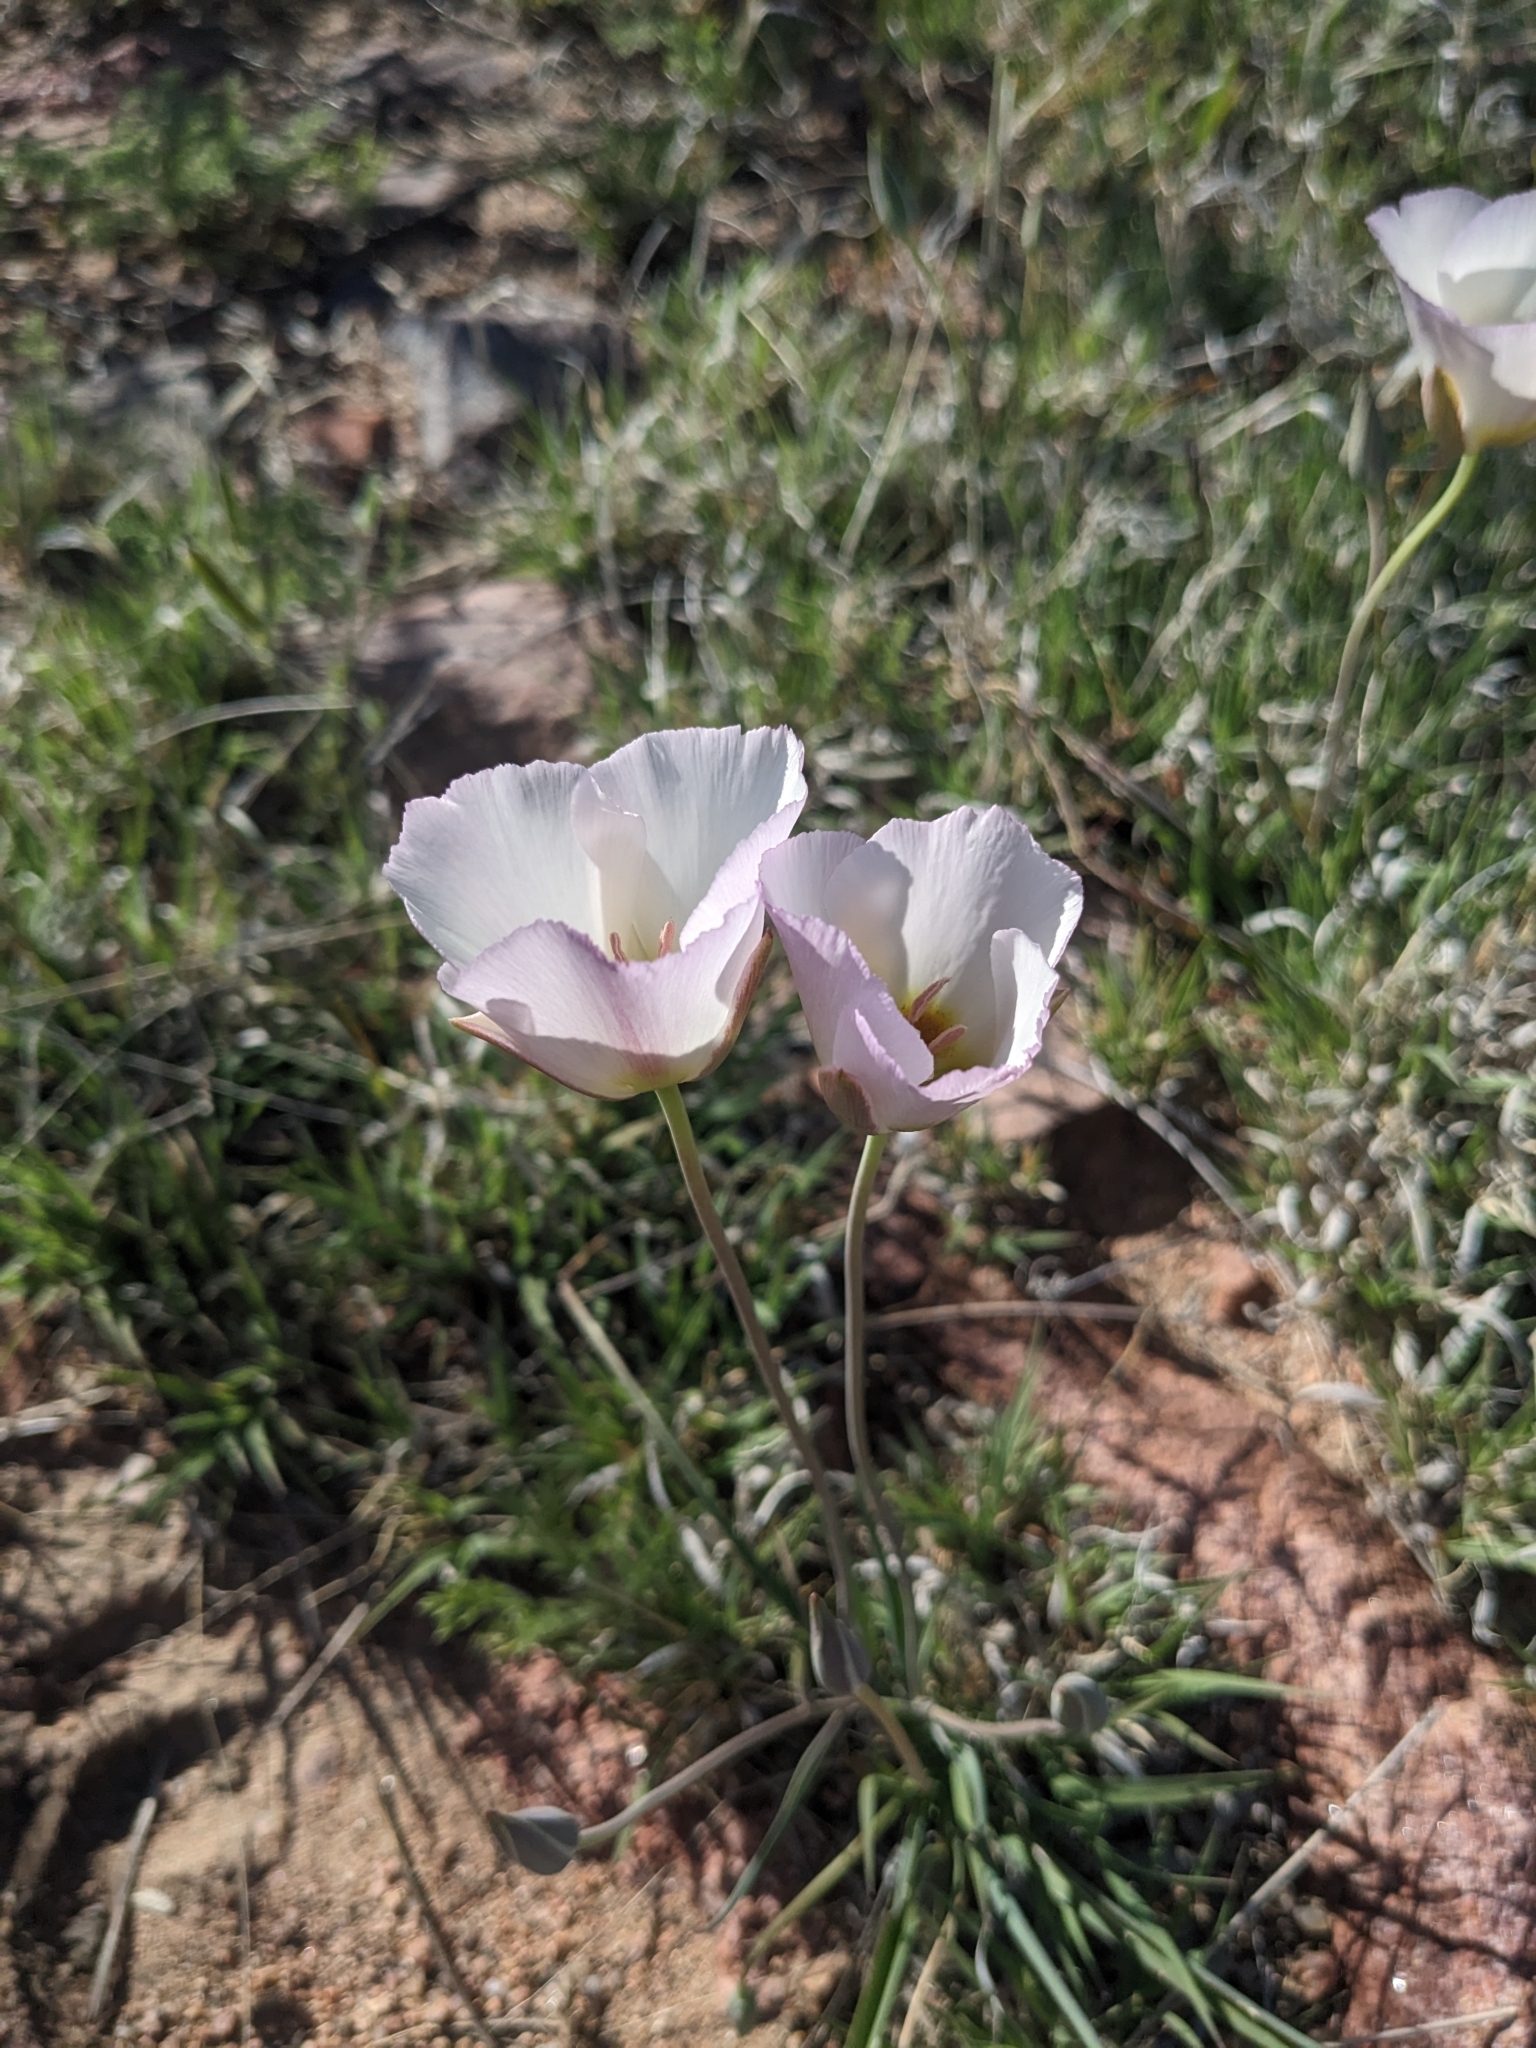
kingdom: Plantae
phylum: Tracheophyta
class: Liliopsida
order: Liliales
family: Liliaceae
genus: Calochortus
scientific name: Calochortus flexuosus
